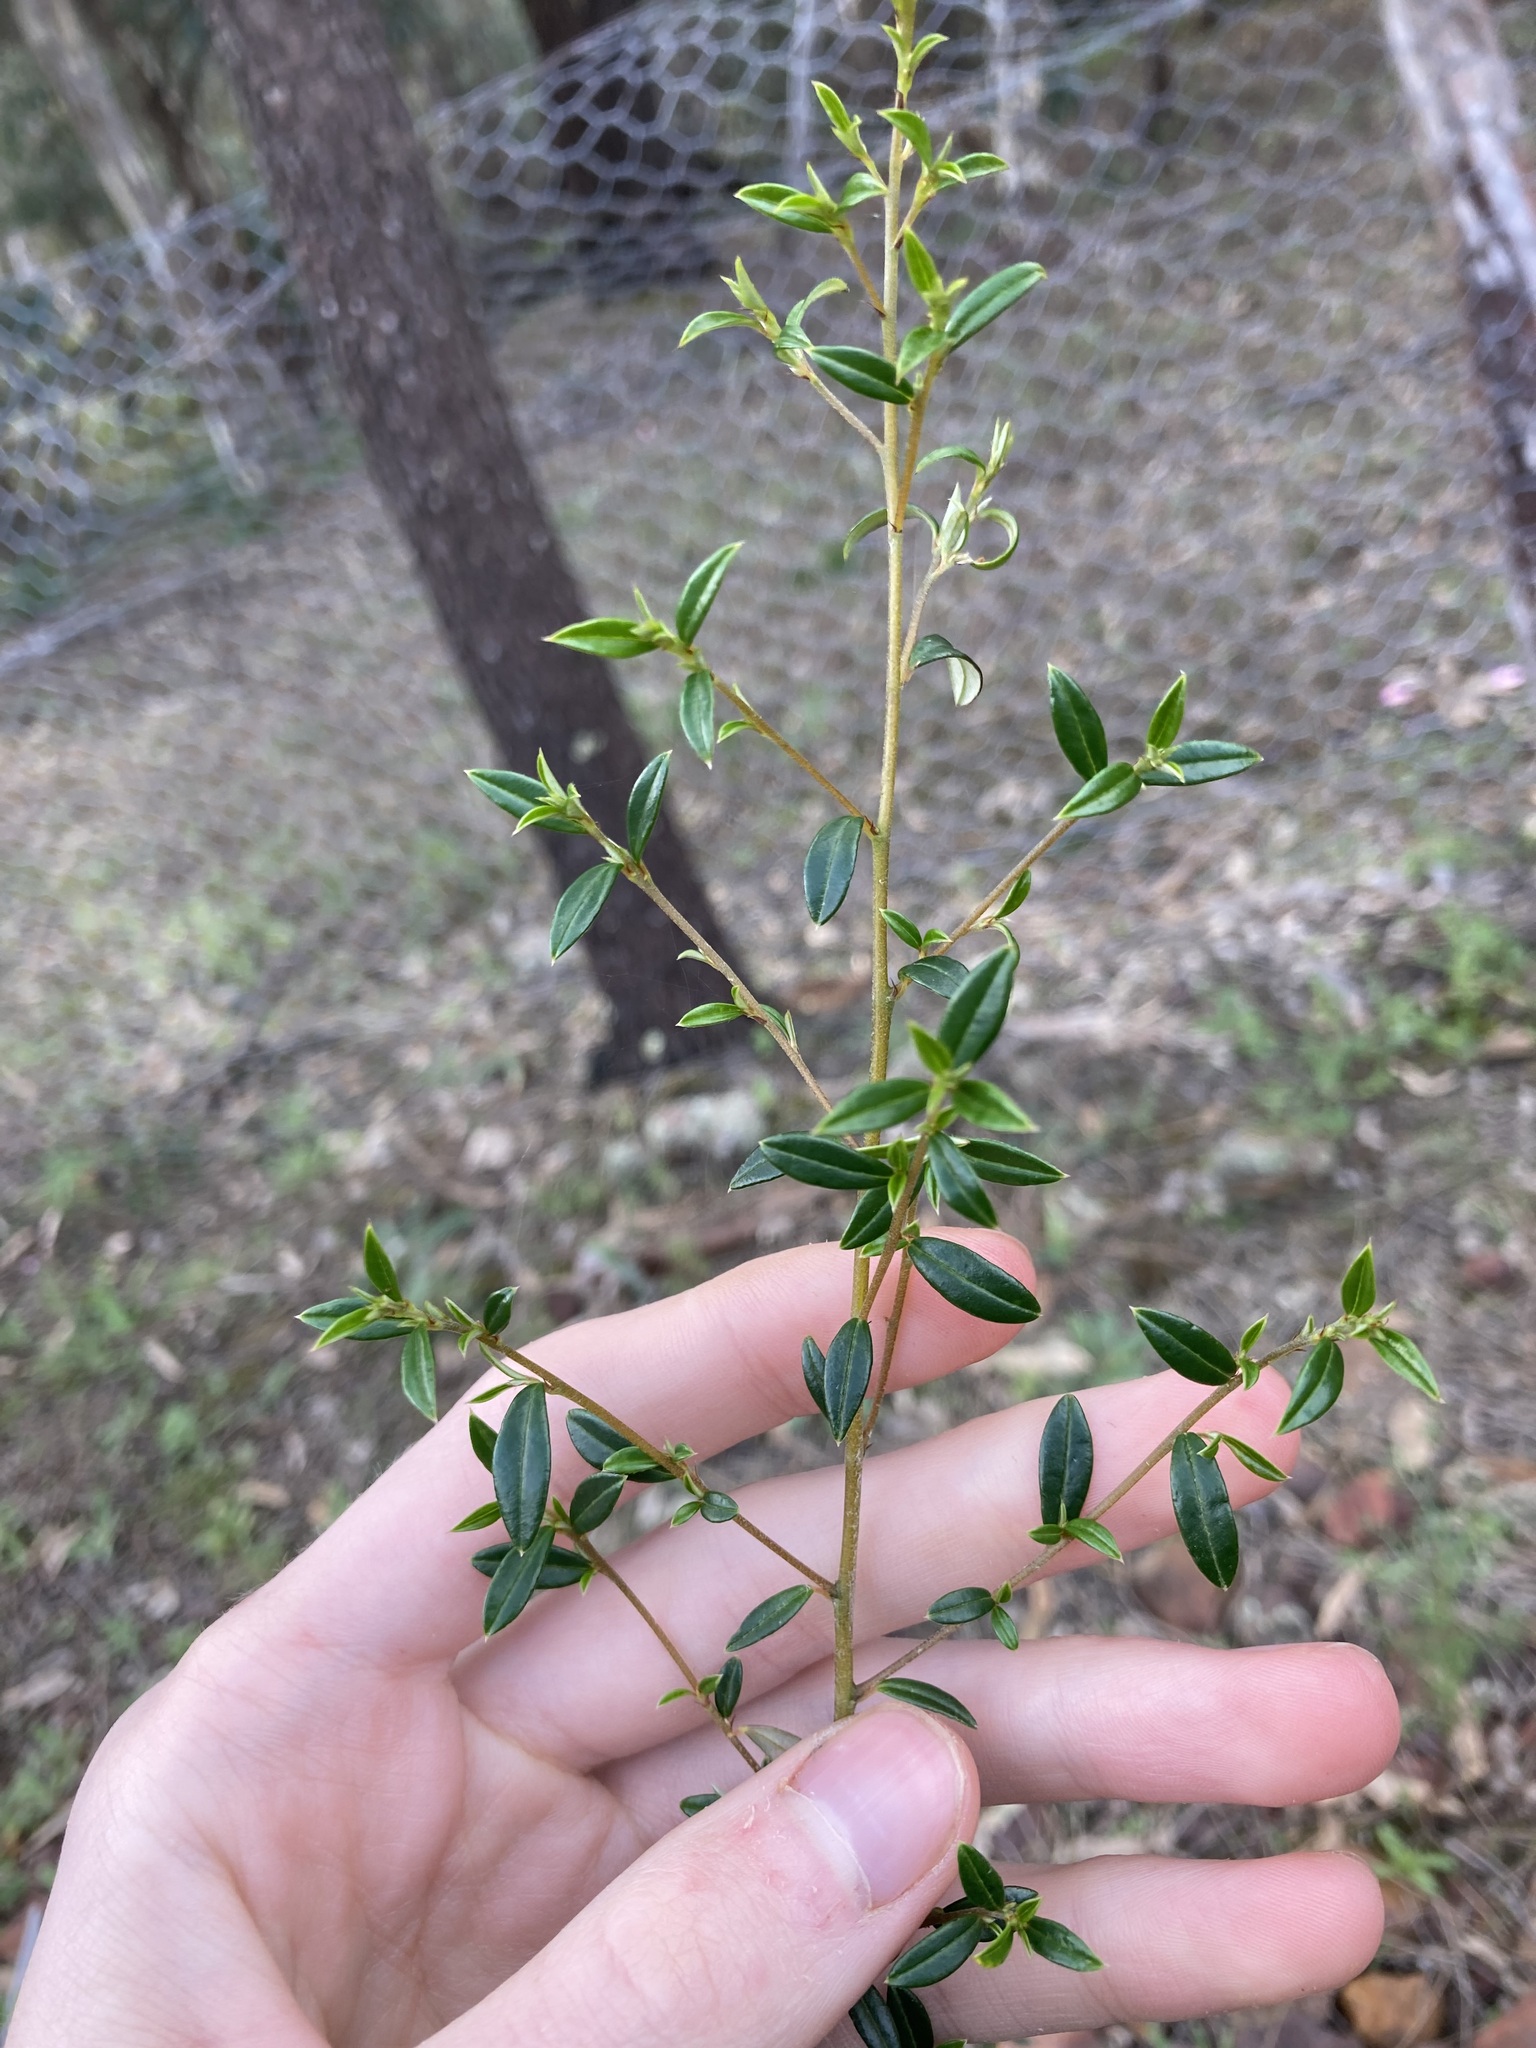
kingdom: Plantae
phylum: Tracheophyta
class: Magnoliopsida
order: Rosales
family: Rhamnaceae
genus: Trymalium
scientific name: Trymalium ledifolium
